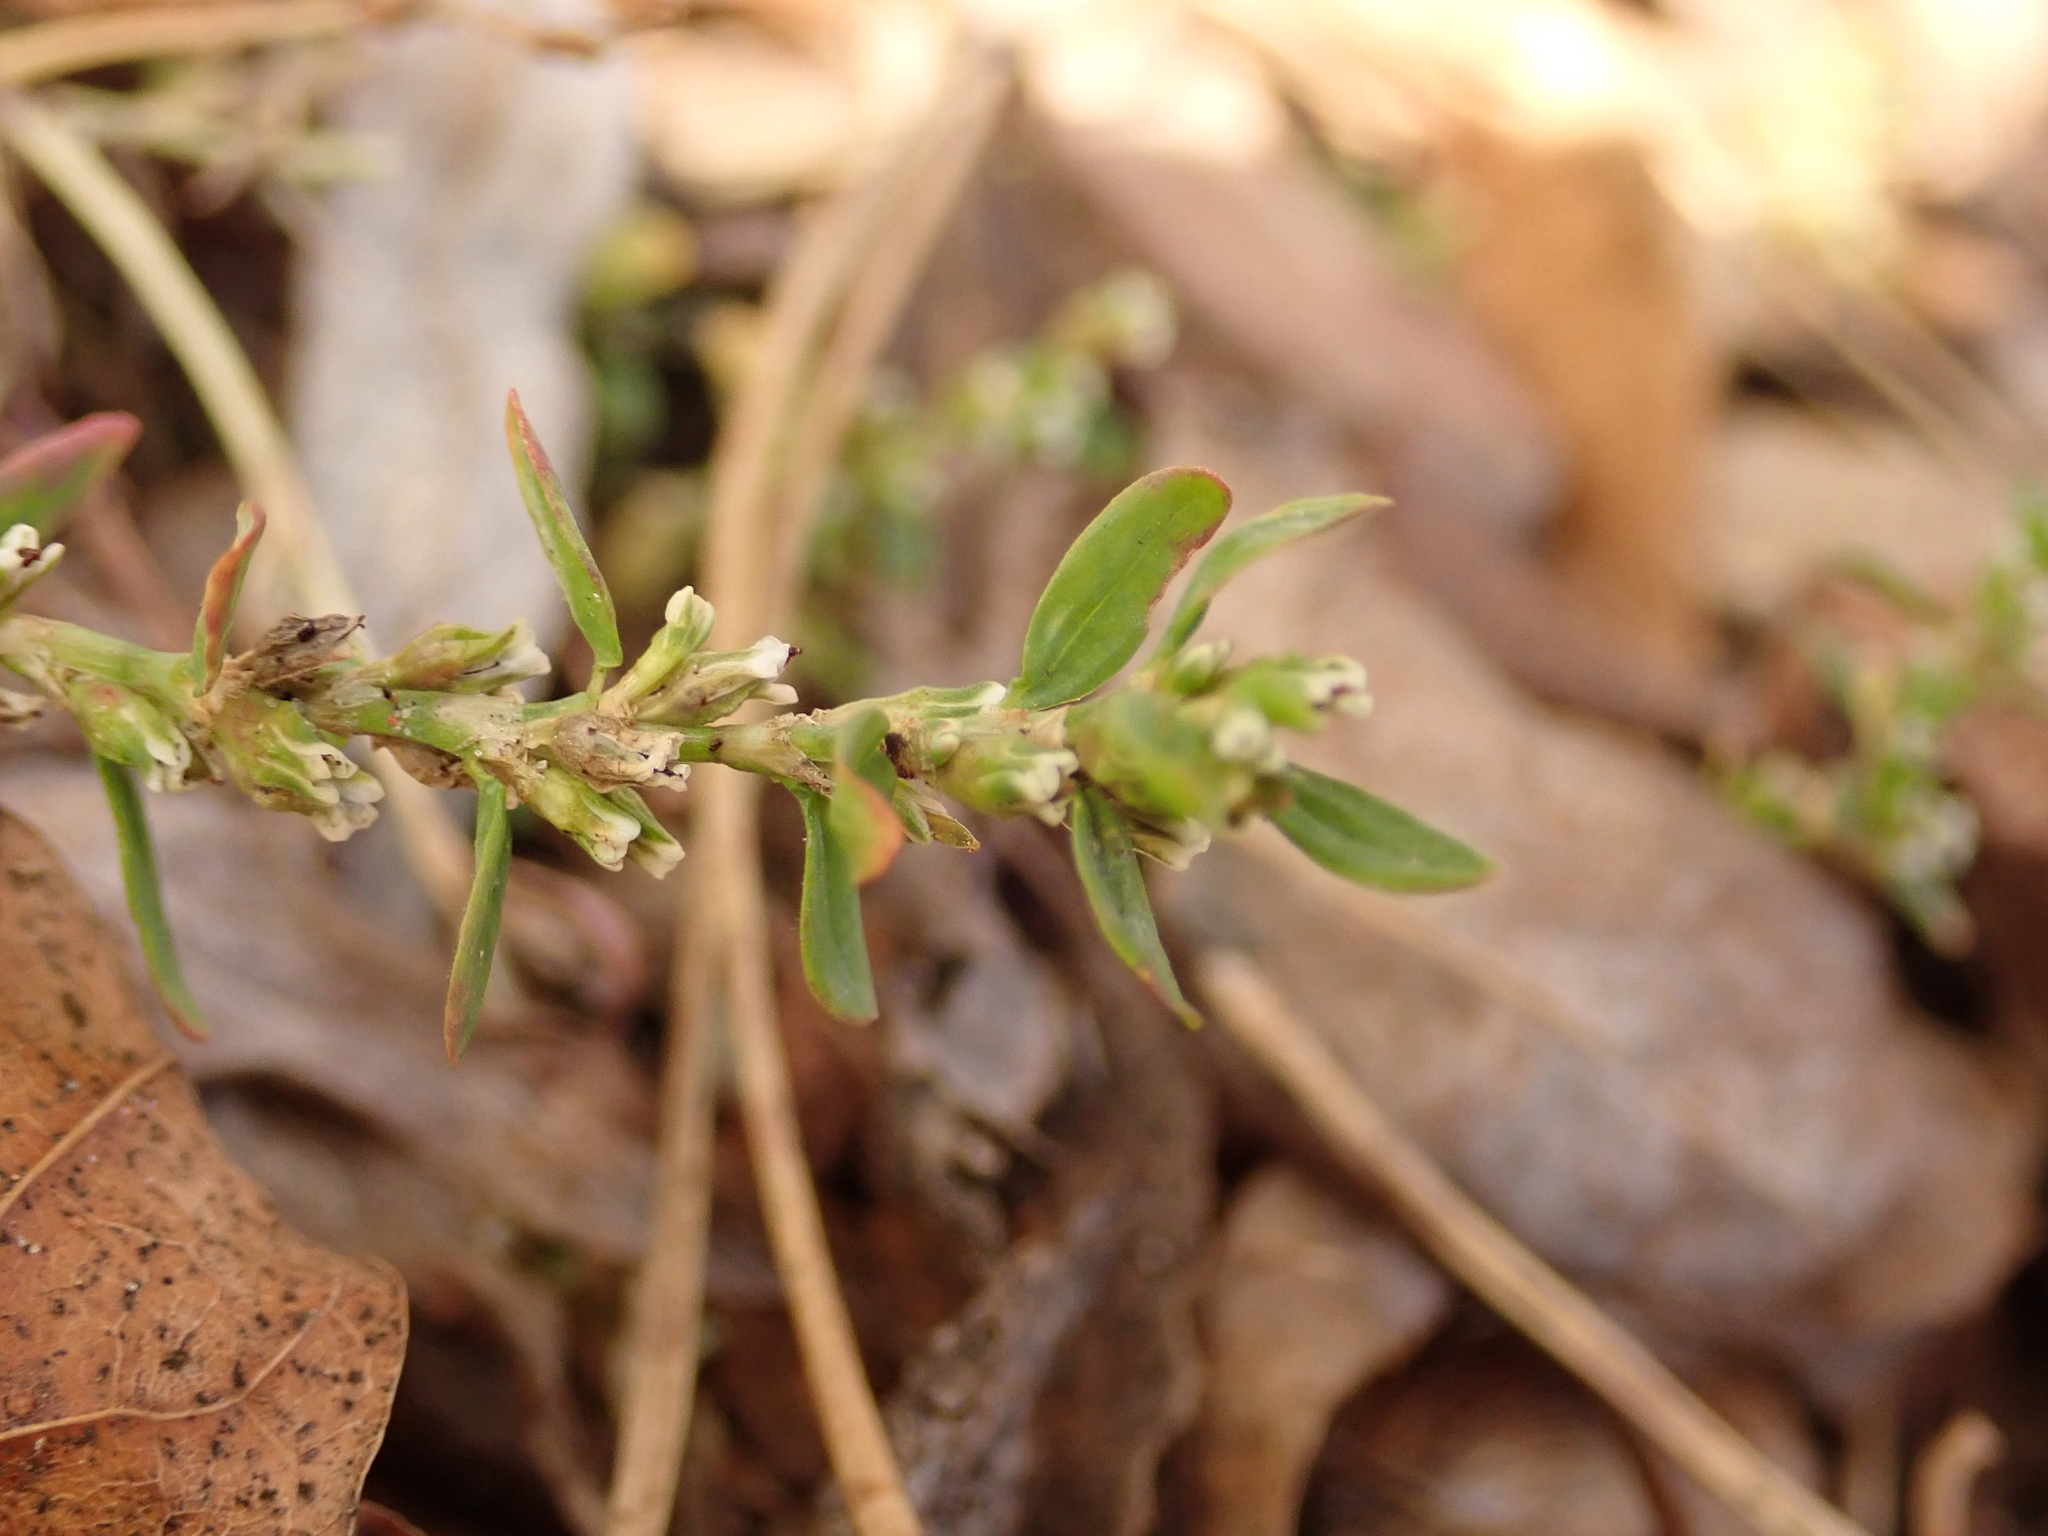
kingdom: Plantae
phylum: Tracheophyta
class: Magnoliopsida
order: Caryophyllales
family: Polygonaceae
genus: Polygonum
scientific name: Polygonum aviculare
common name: Prostrate knotweed
